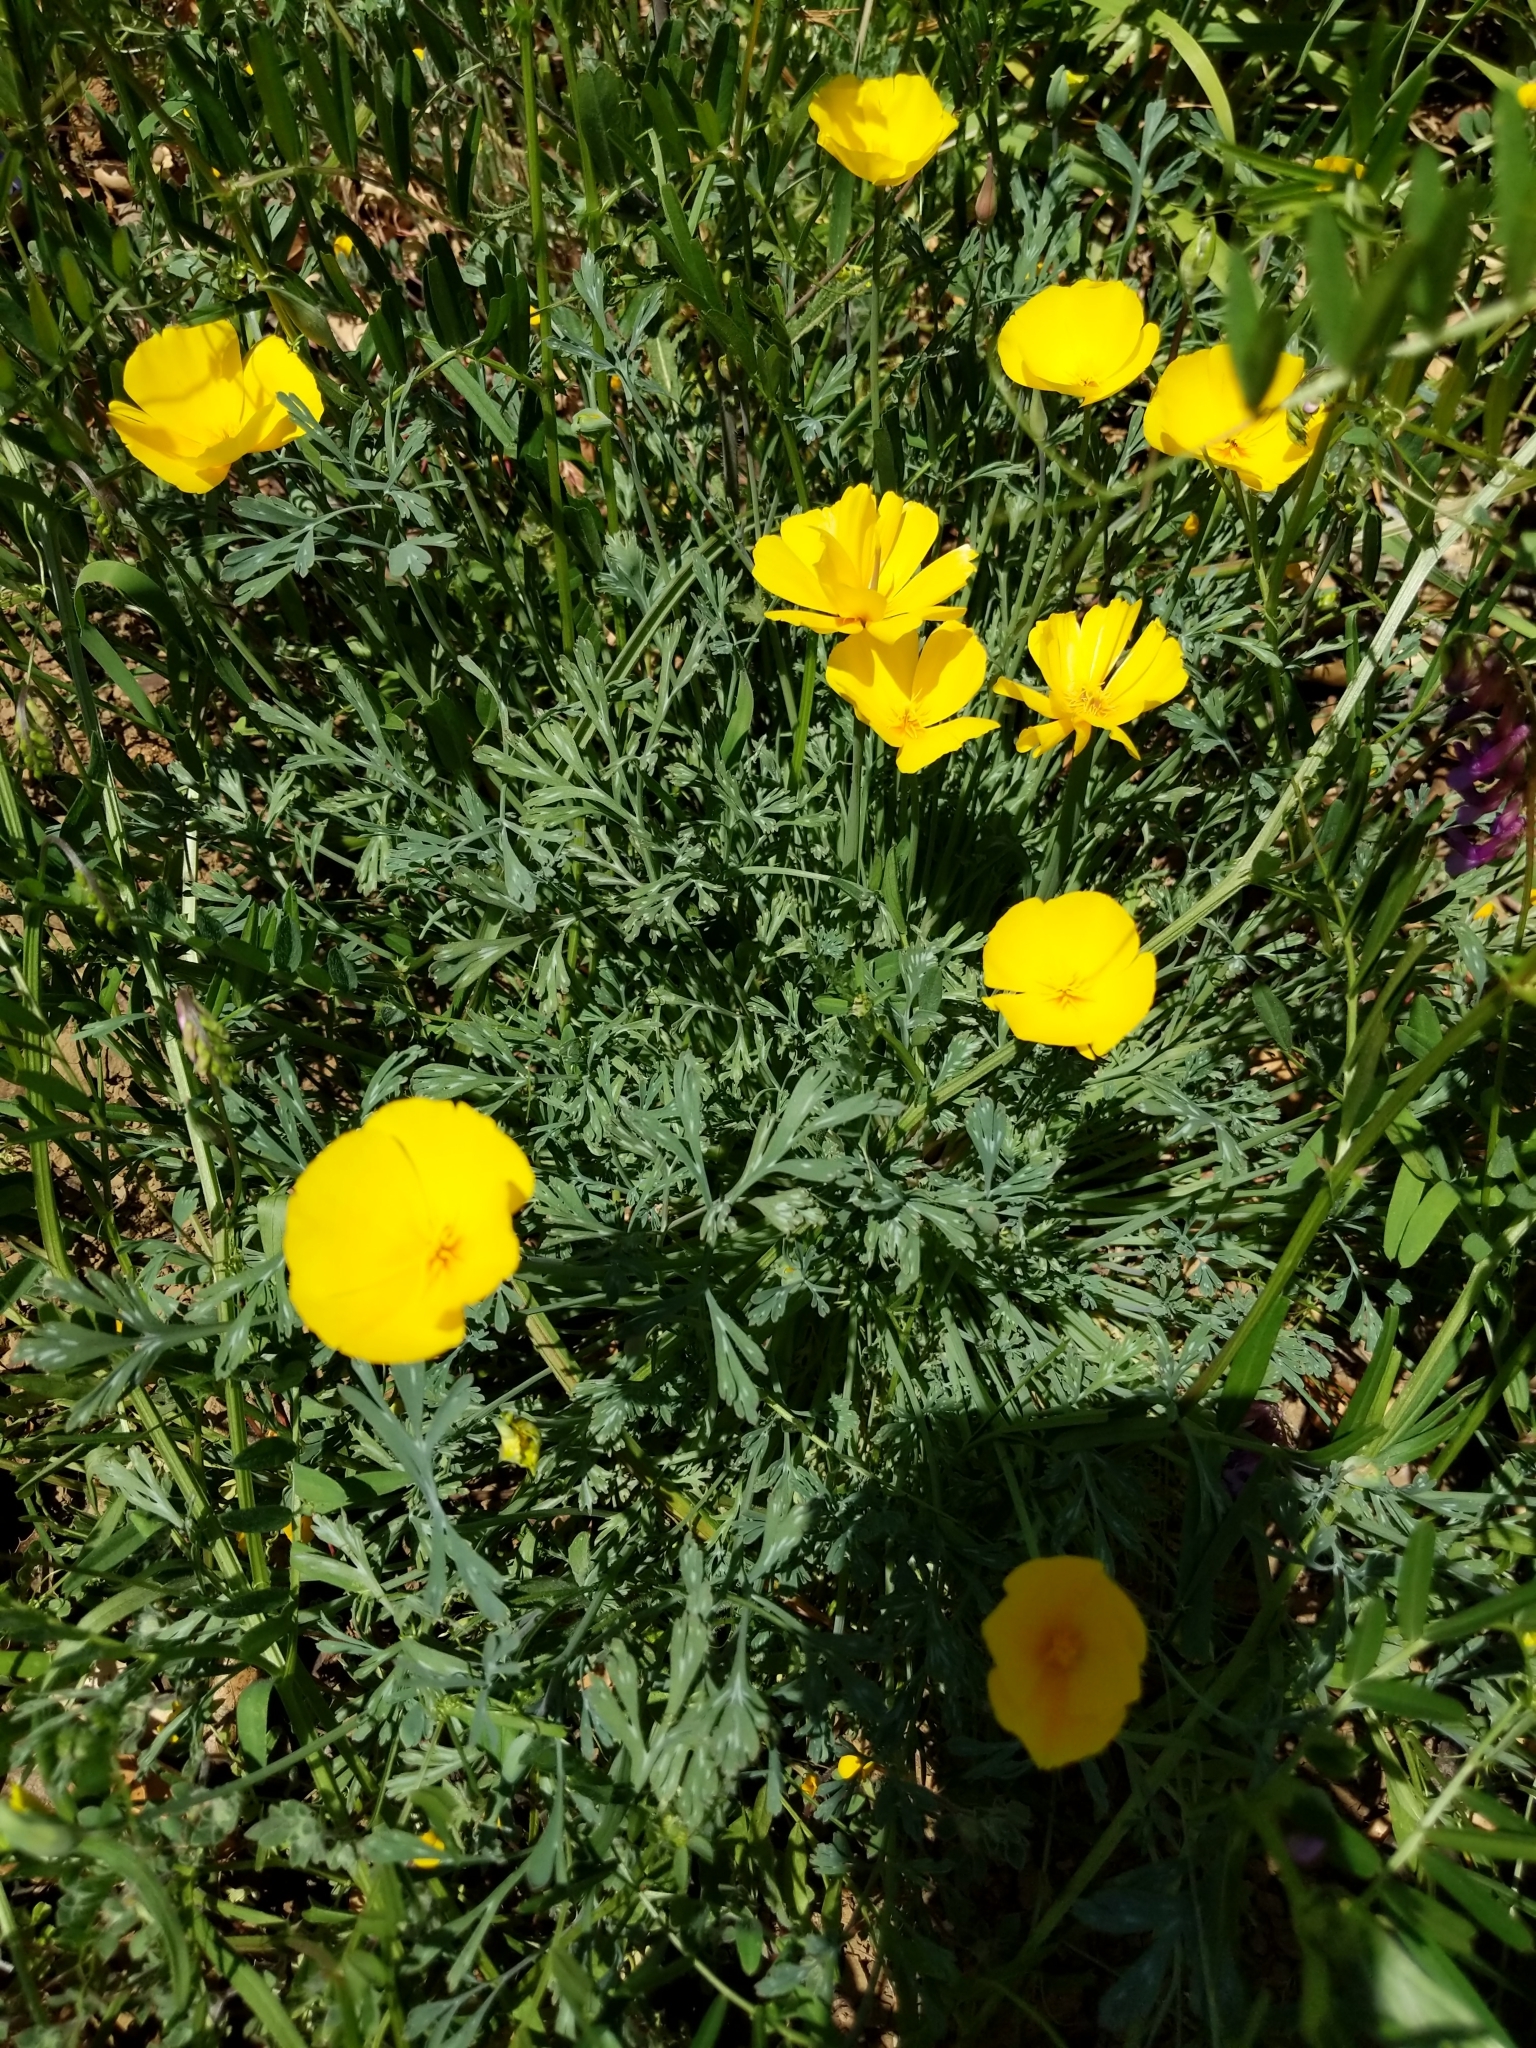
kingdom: Plantae
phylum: Tracheophyta
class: Magnoliopsida
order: Ranunculales
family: Papaveraceae
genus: Eschscholzia
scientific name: Eschscholzia caespitosa
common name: Tufted california-poppy
